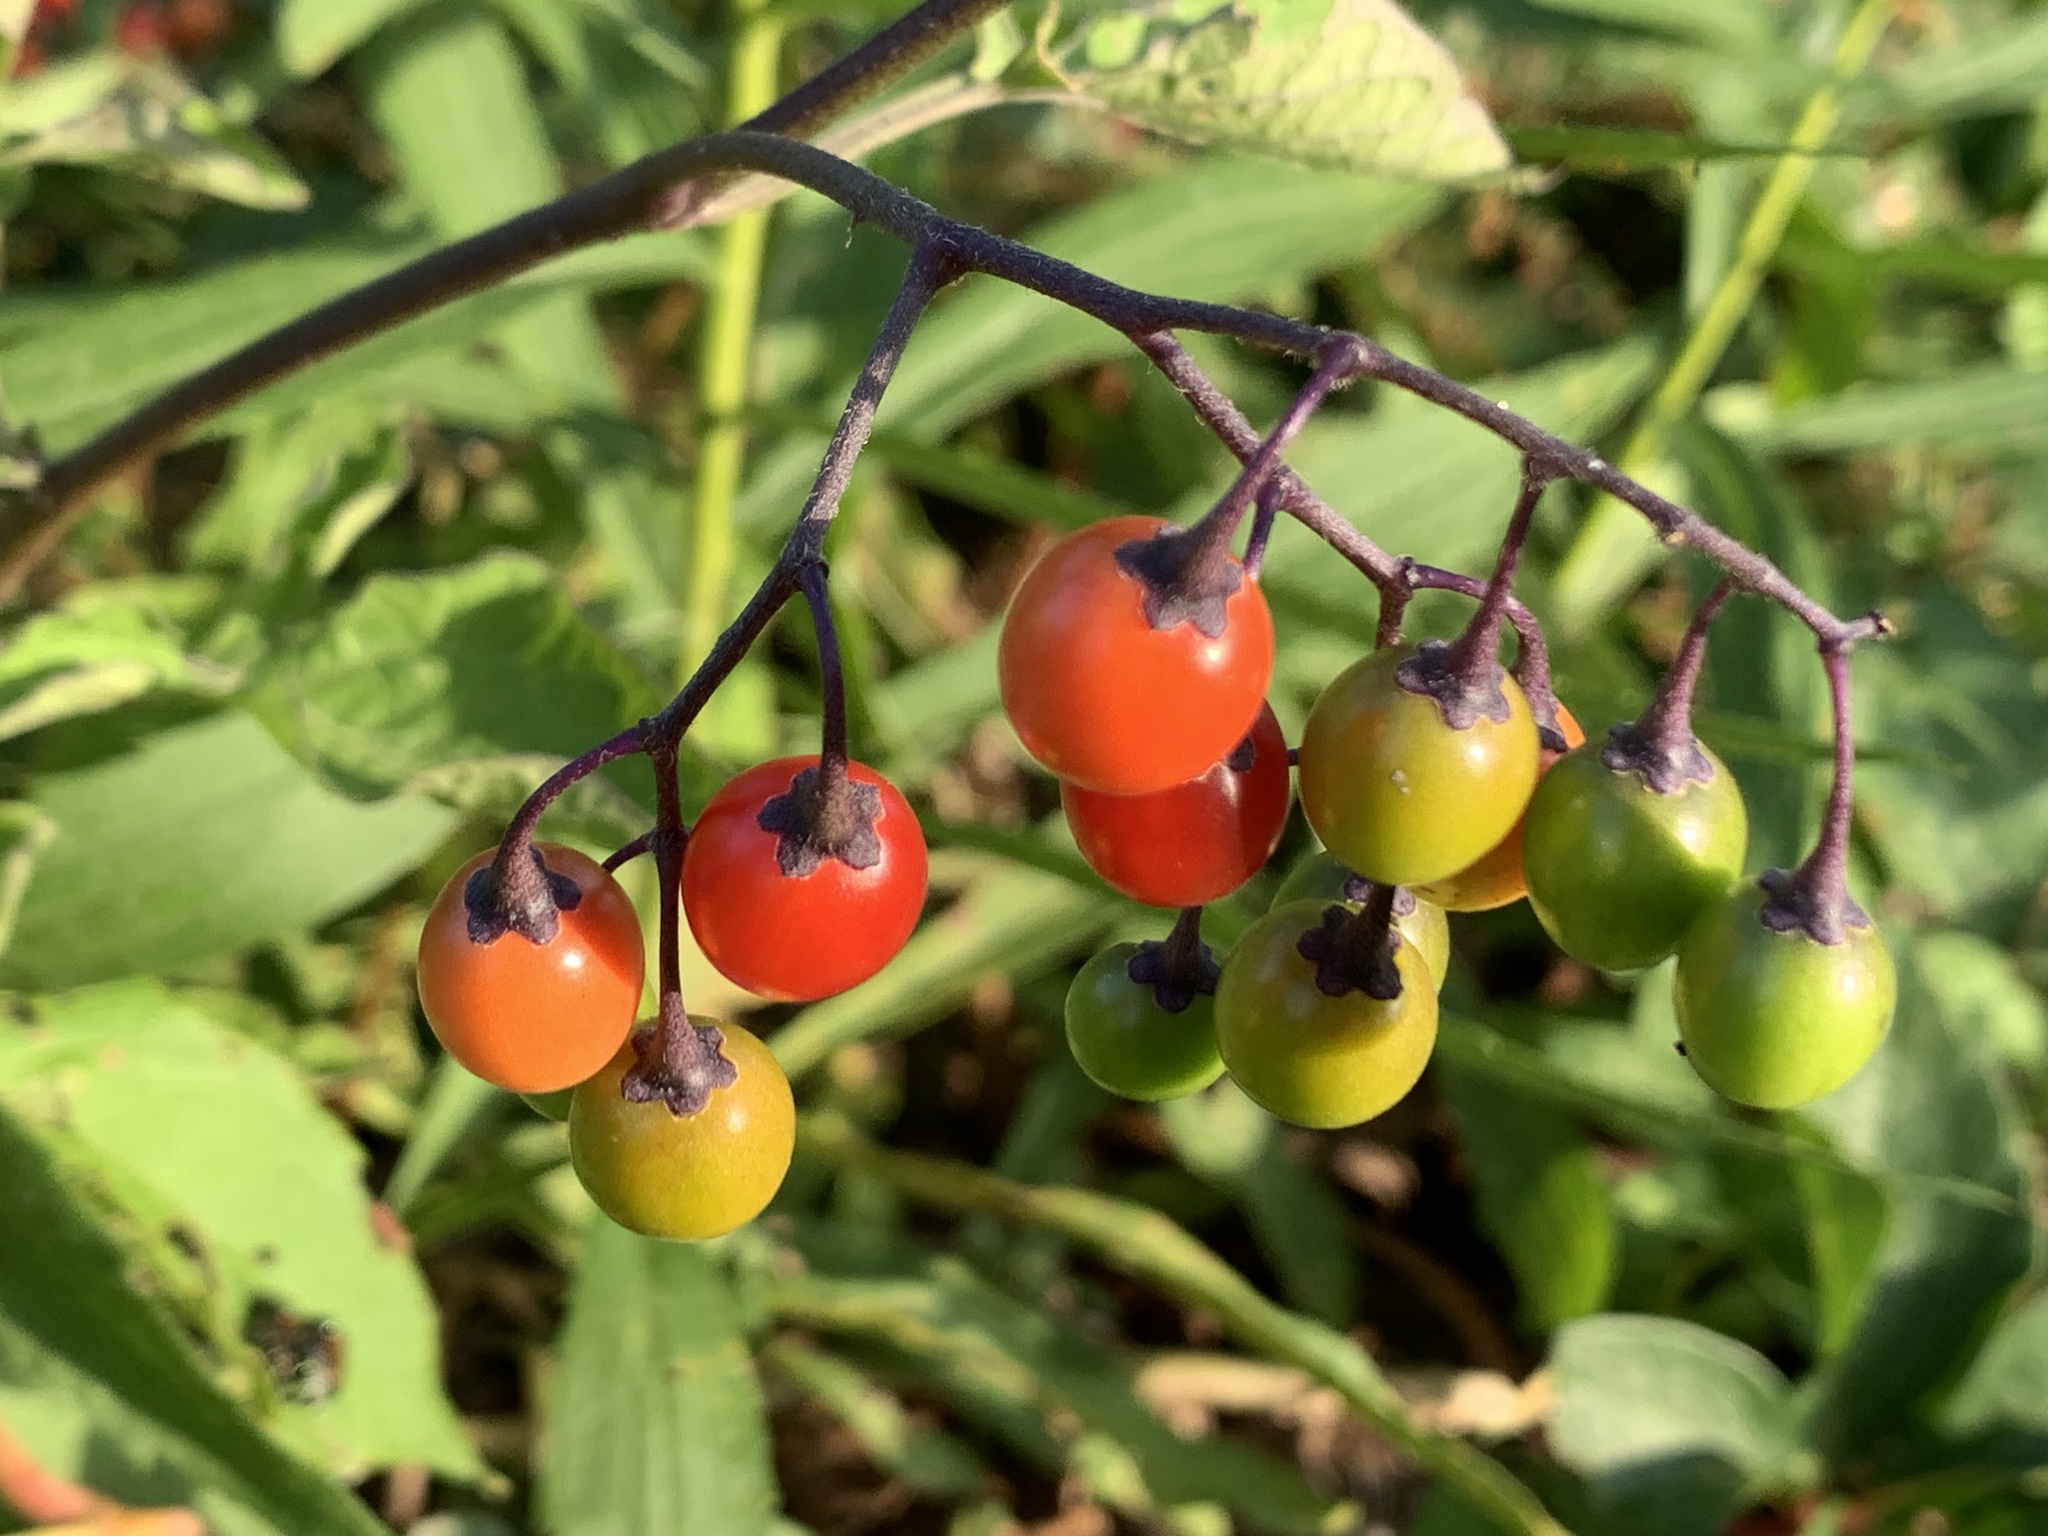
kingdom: Plantae
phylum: Tracheophyta
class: Magnoliopsida
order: Solanales
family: Solanaceae
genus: Solanum
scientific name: Solanum dulcamara
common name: Climbing nightshade
